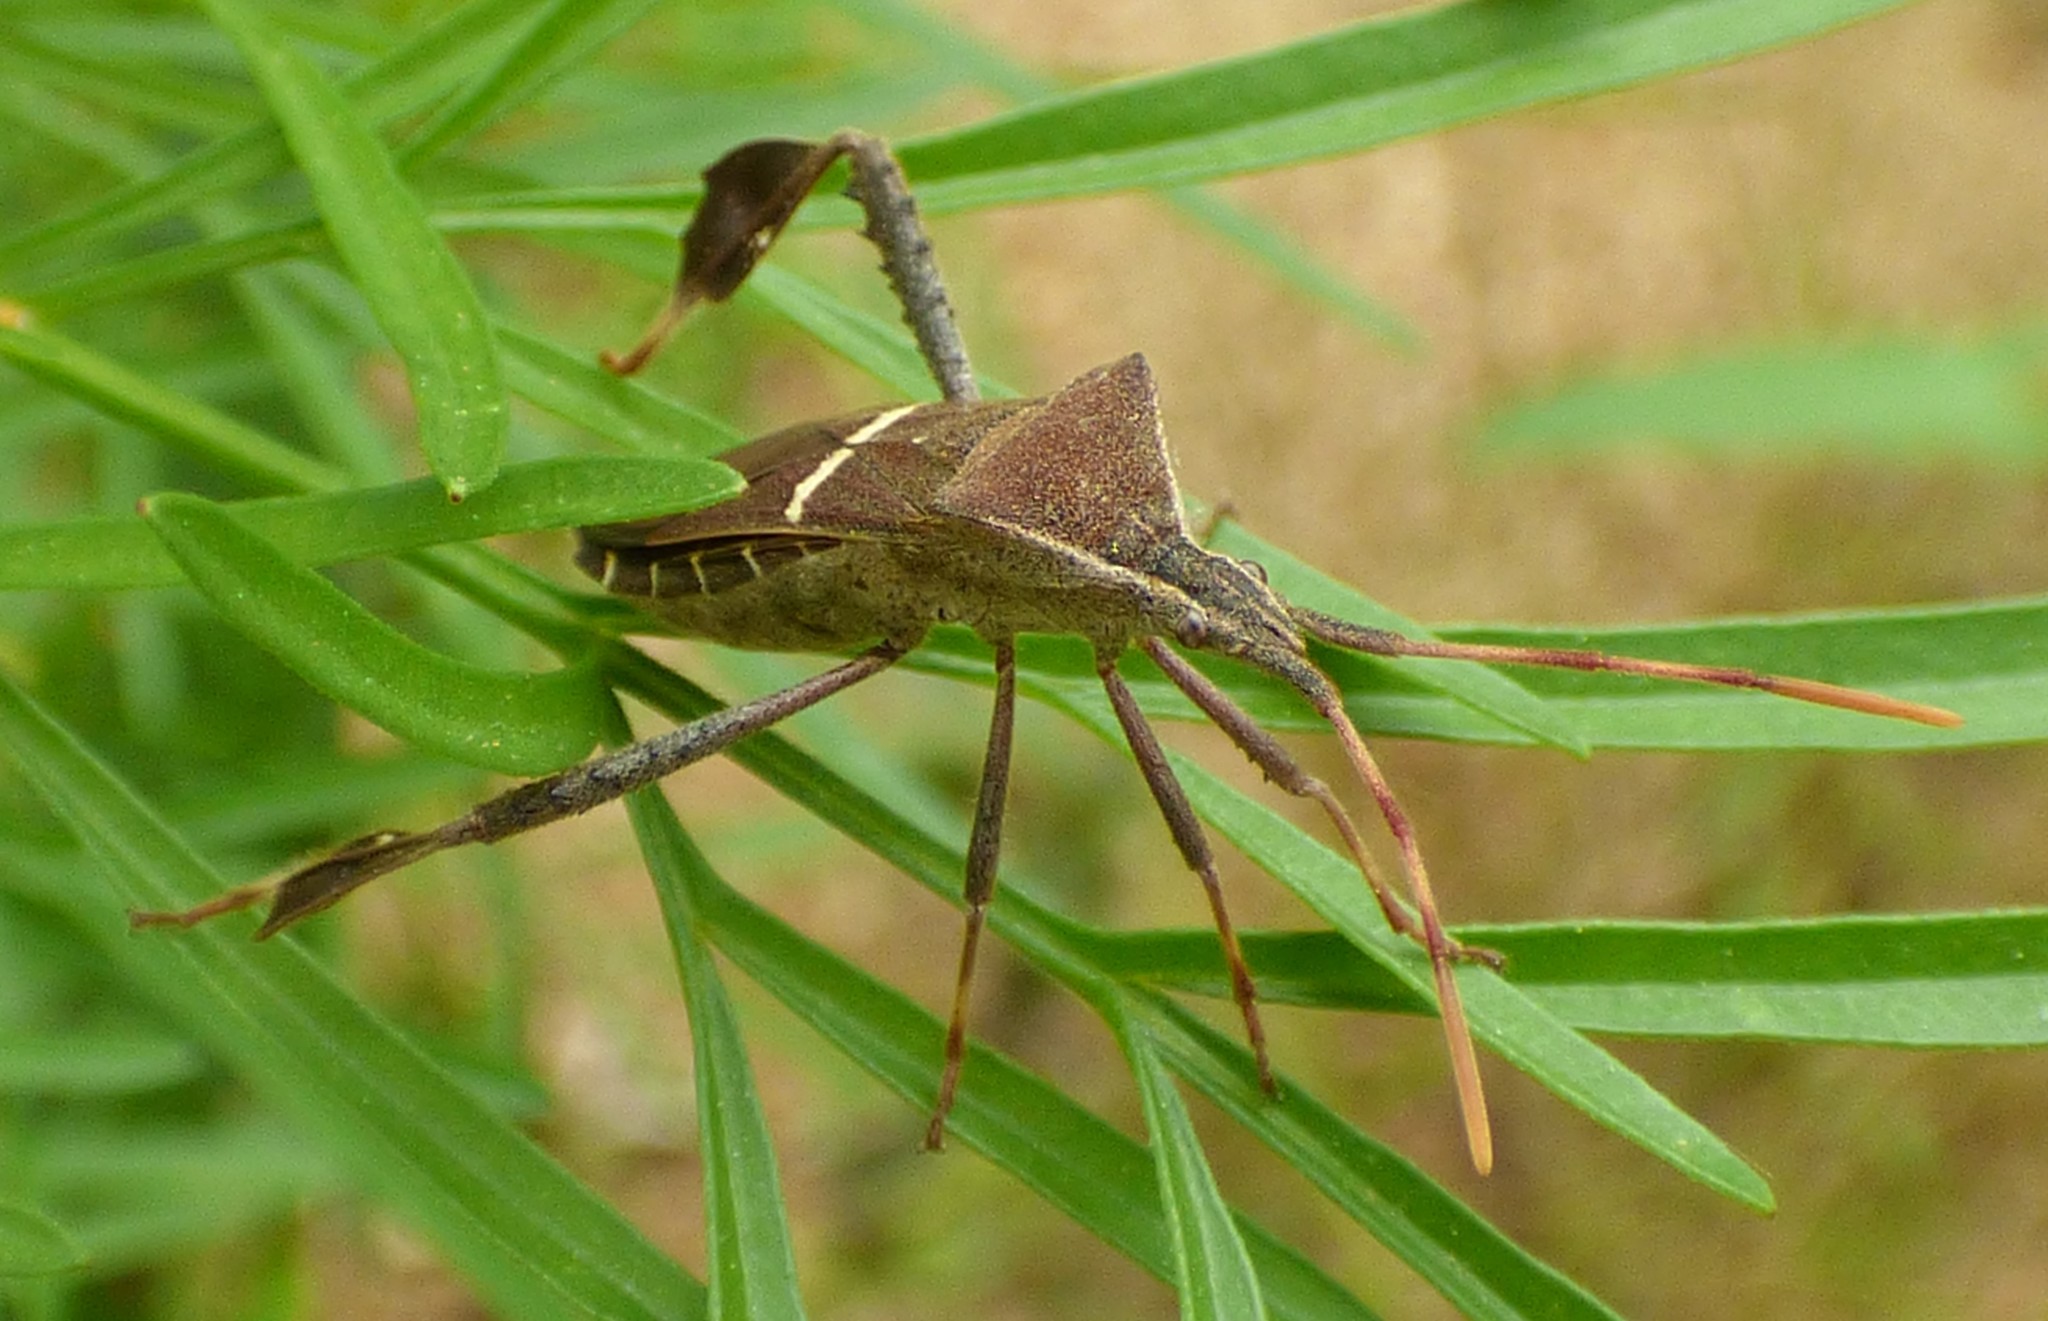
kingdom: Animalia
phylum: Arthropoda
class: Insecta
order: Hemiptera
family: Coreidae
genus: Leptoglossus
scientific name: Leptoglossus phyllopus
